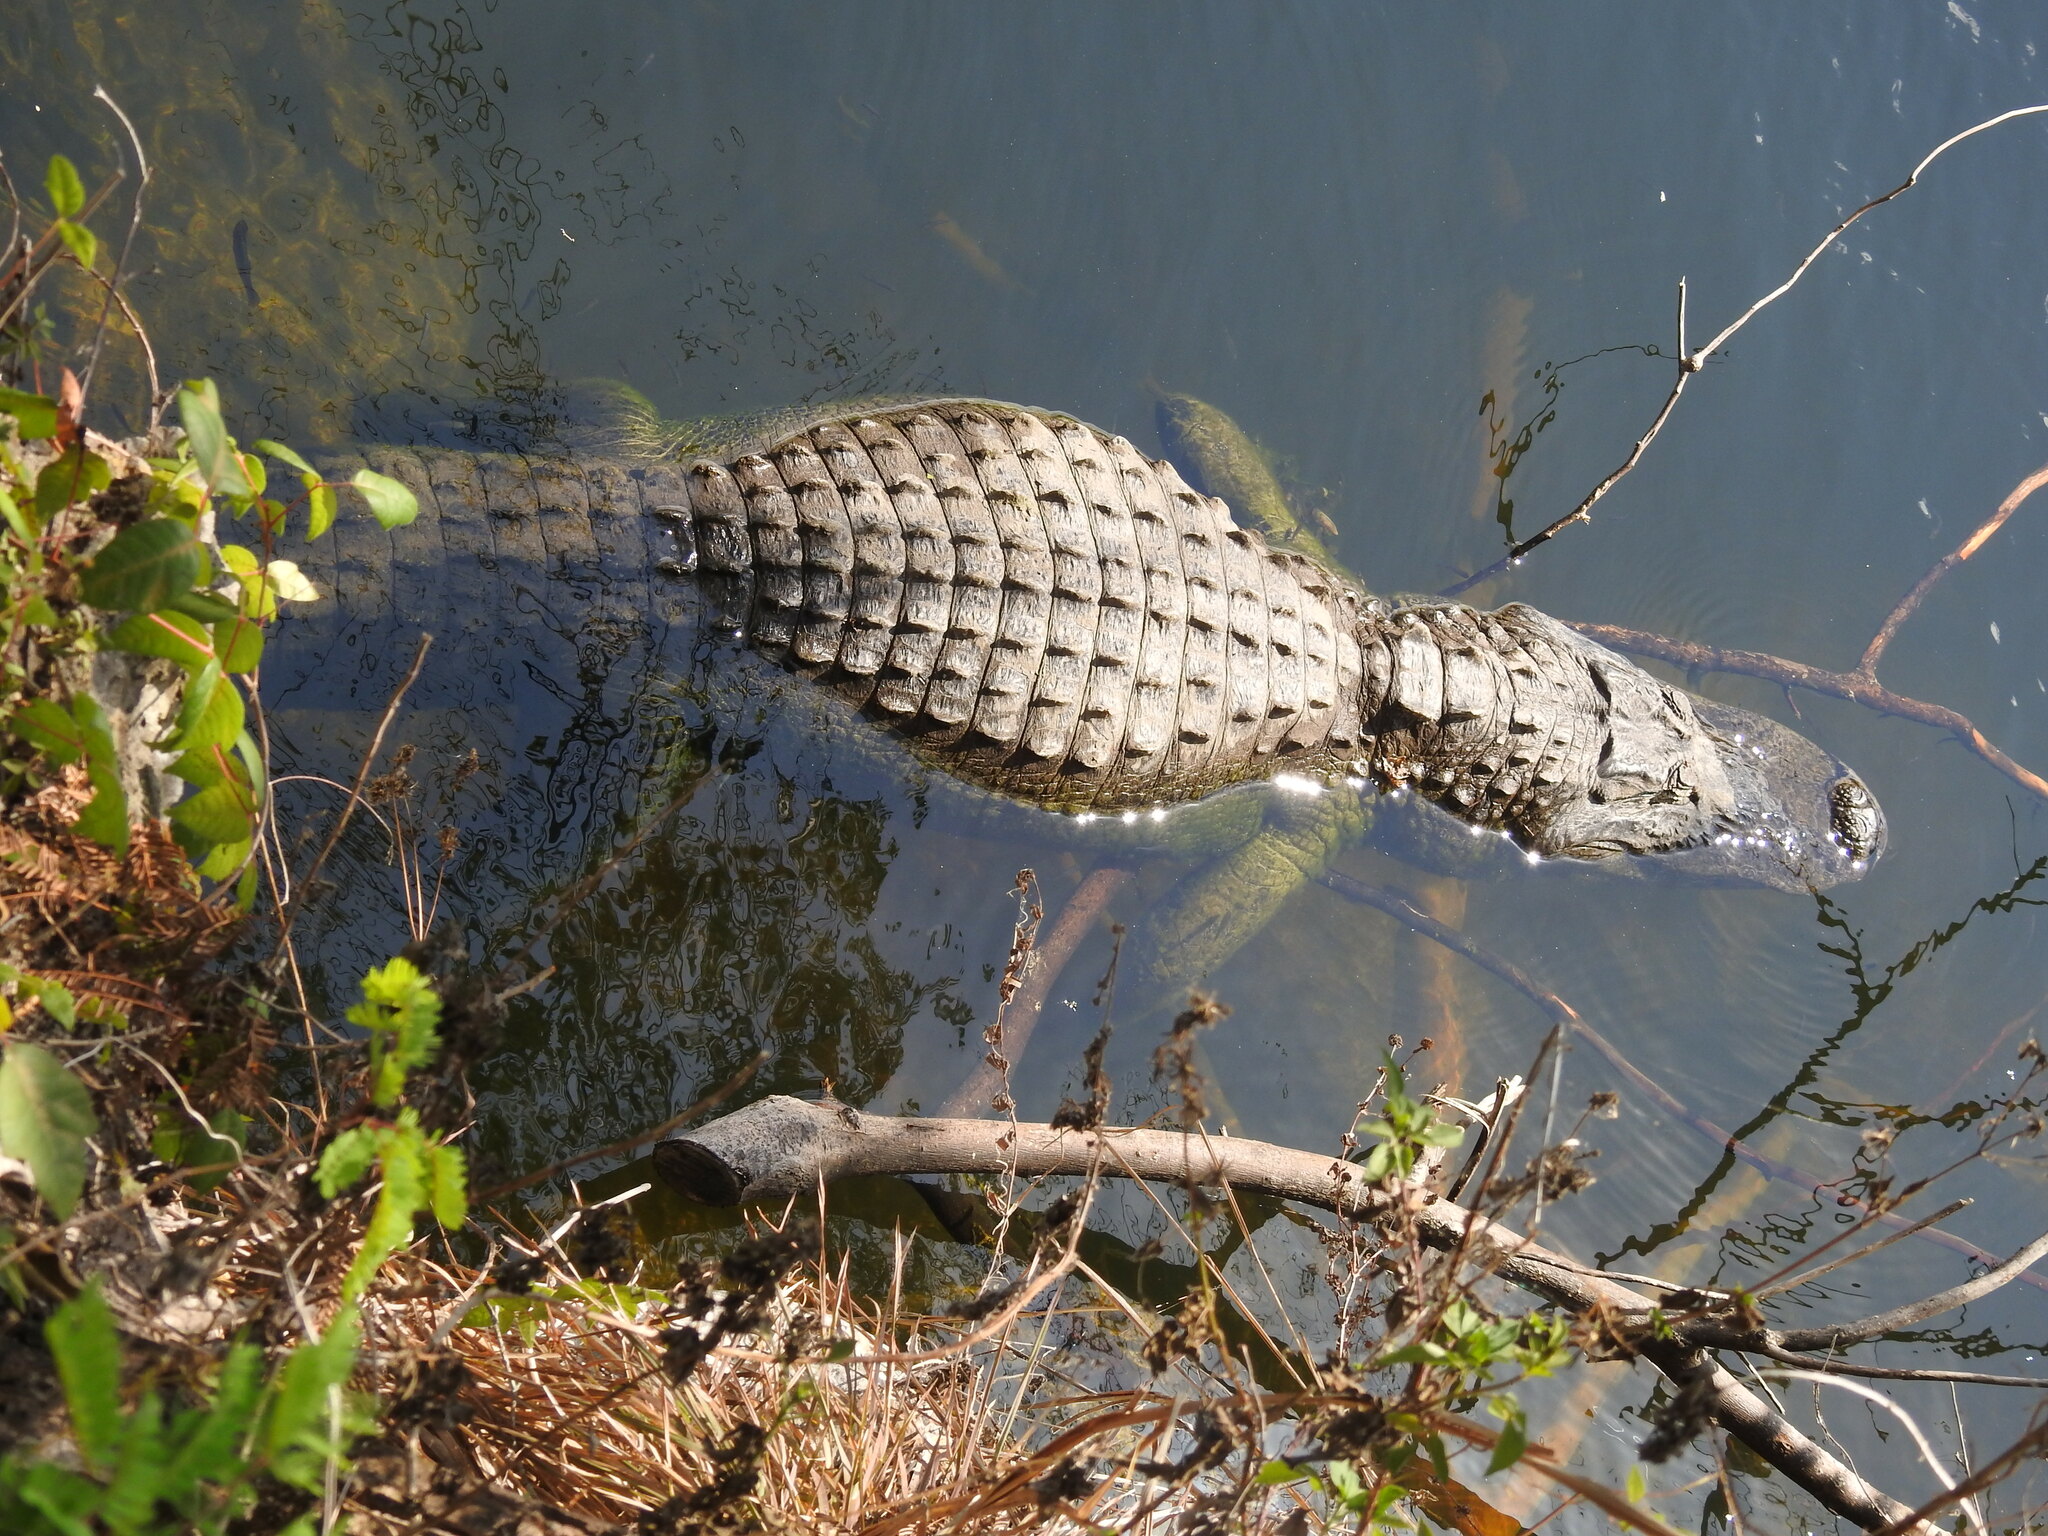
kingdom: Animalia
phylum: Chordata
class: Crocodylia
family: Alligatoridae
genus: Alligator
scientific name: Alligator mississippiensis
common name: American alligator
